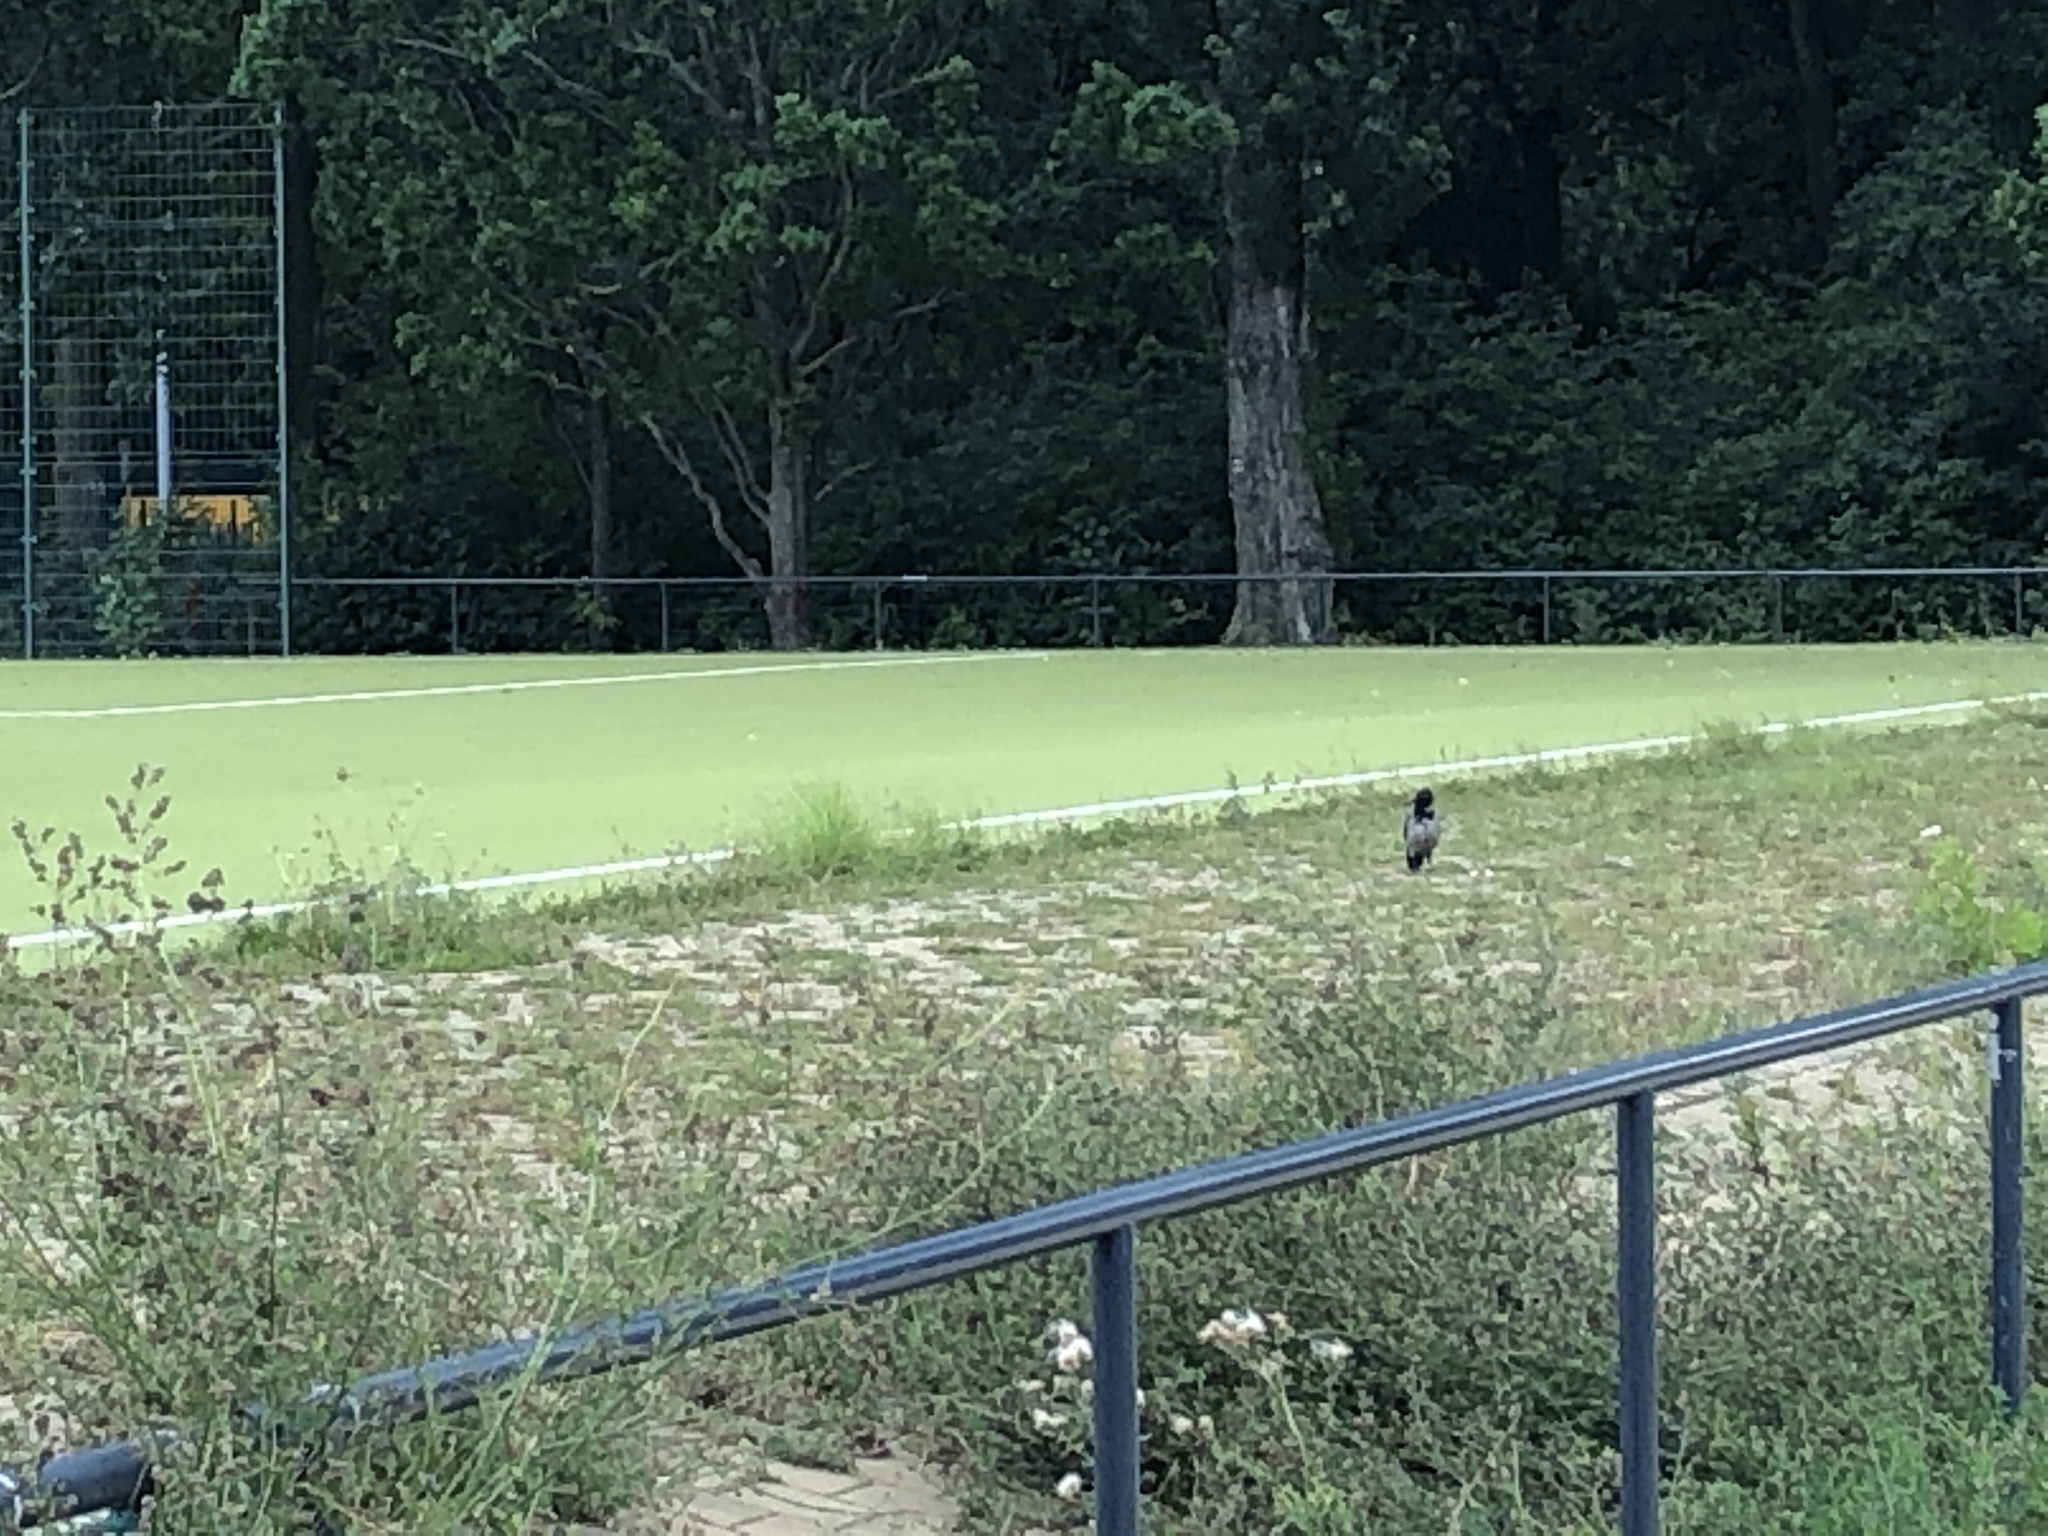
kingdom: Animalia
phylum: Chordata
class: Aves
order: Passeriformes
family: Corvidae
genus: Corvus
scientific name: Corvus cornix
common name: Hooded crow
